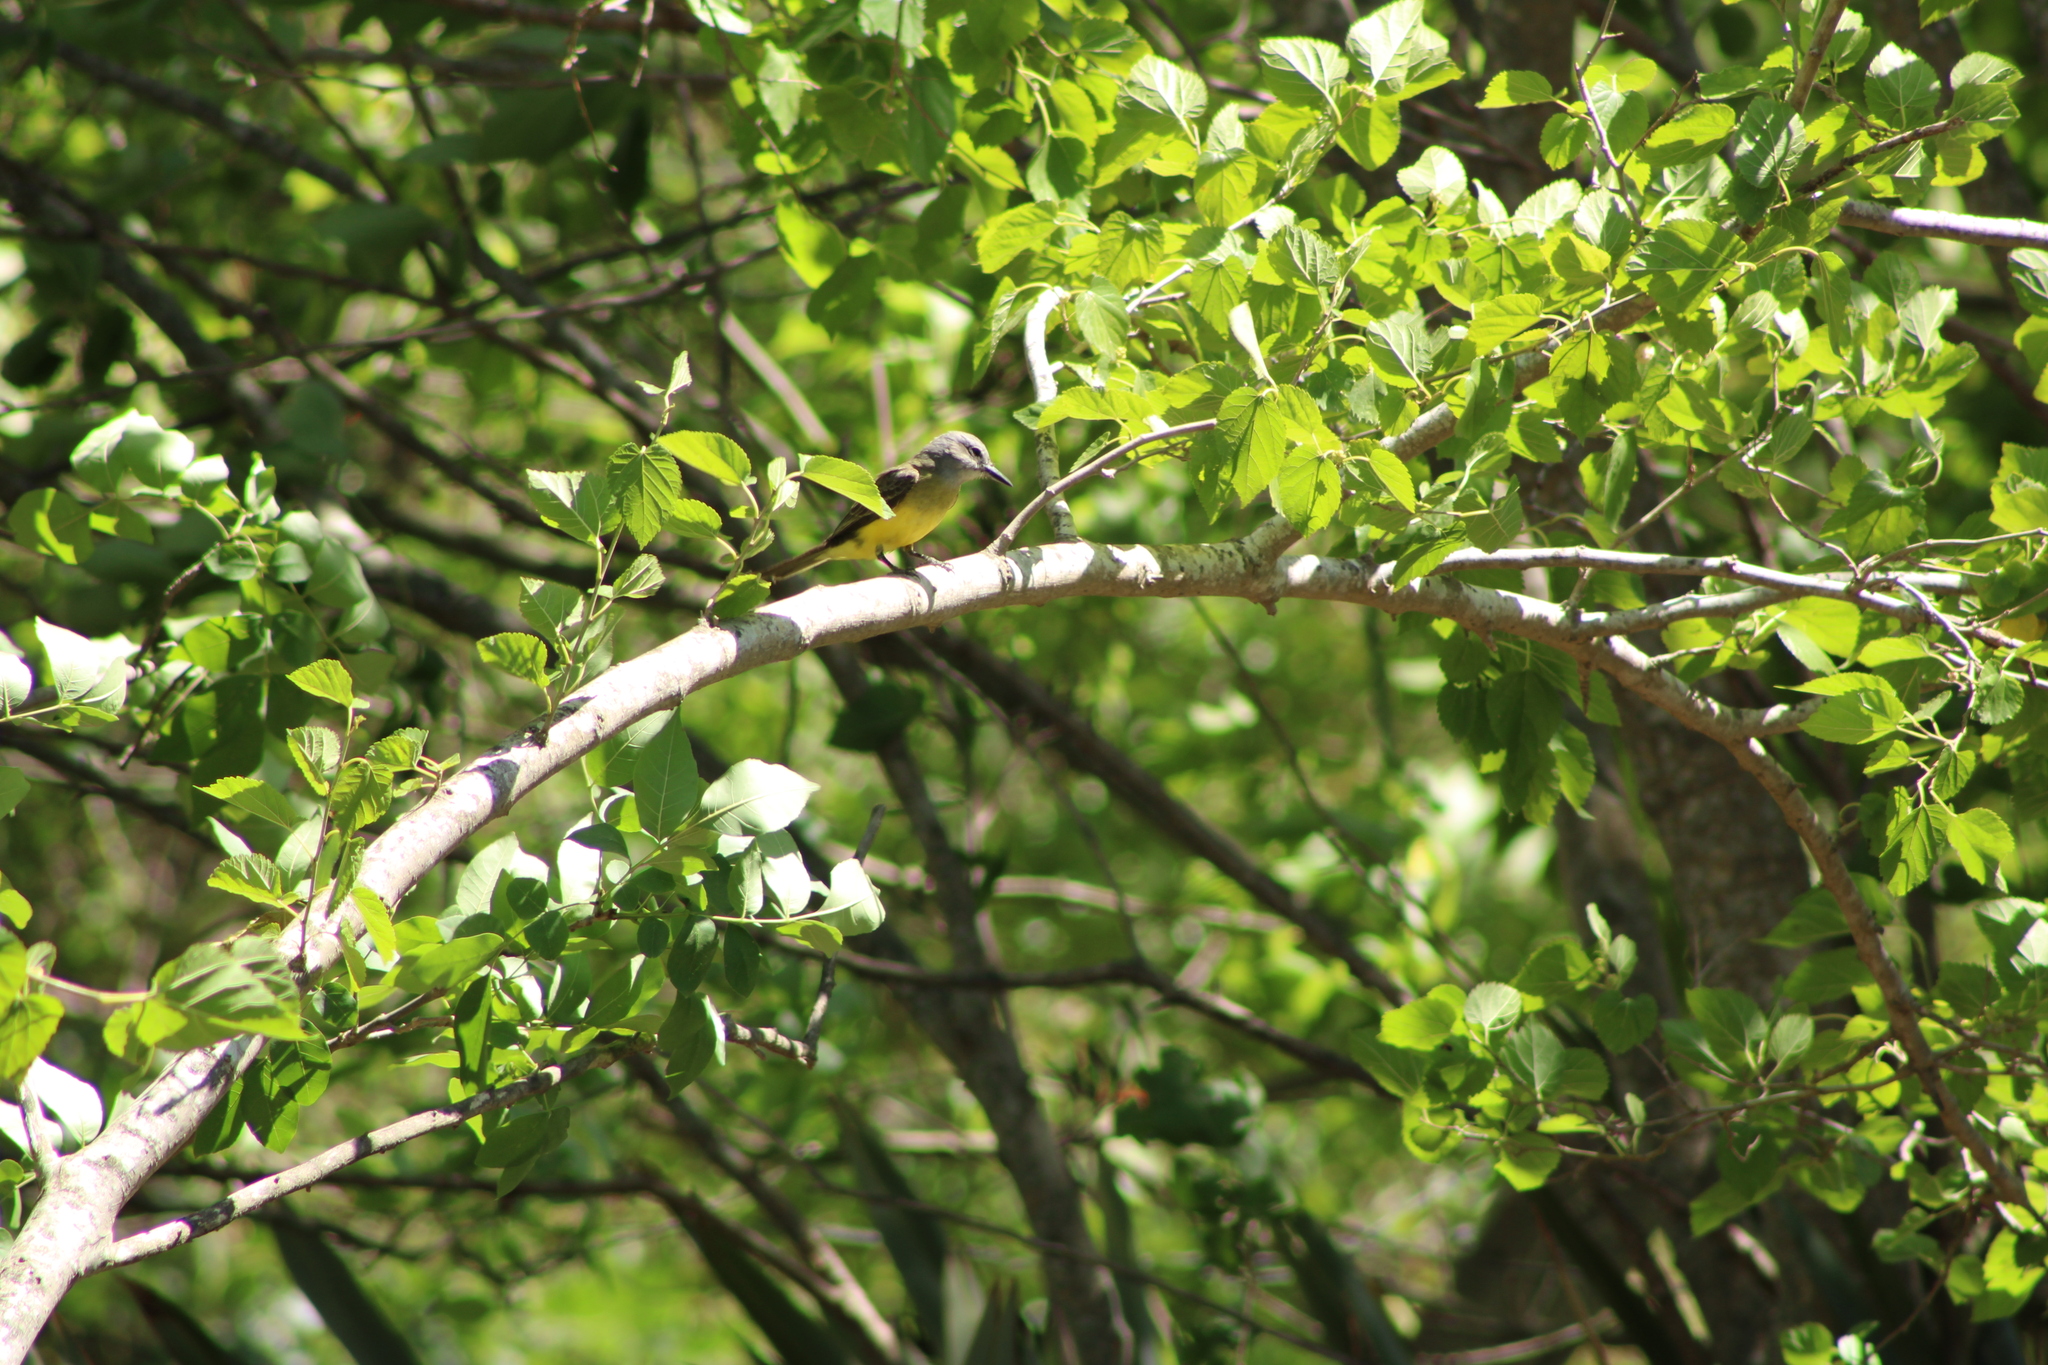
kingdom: Animalia
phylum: Chordata
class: Aves
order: Passeriformes
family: Tyrannidae
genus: Tyrannus
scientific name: Tyrannus melancholicus
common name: Tropical kingbird
